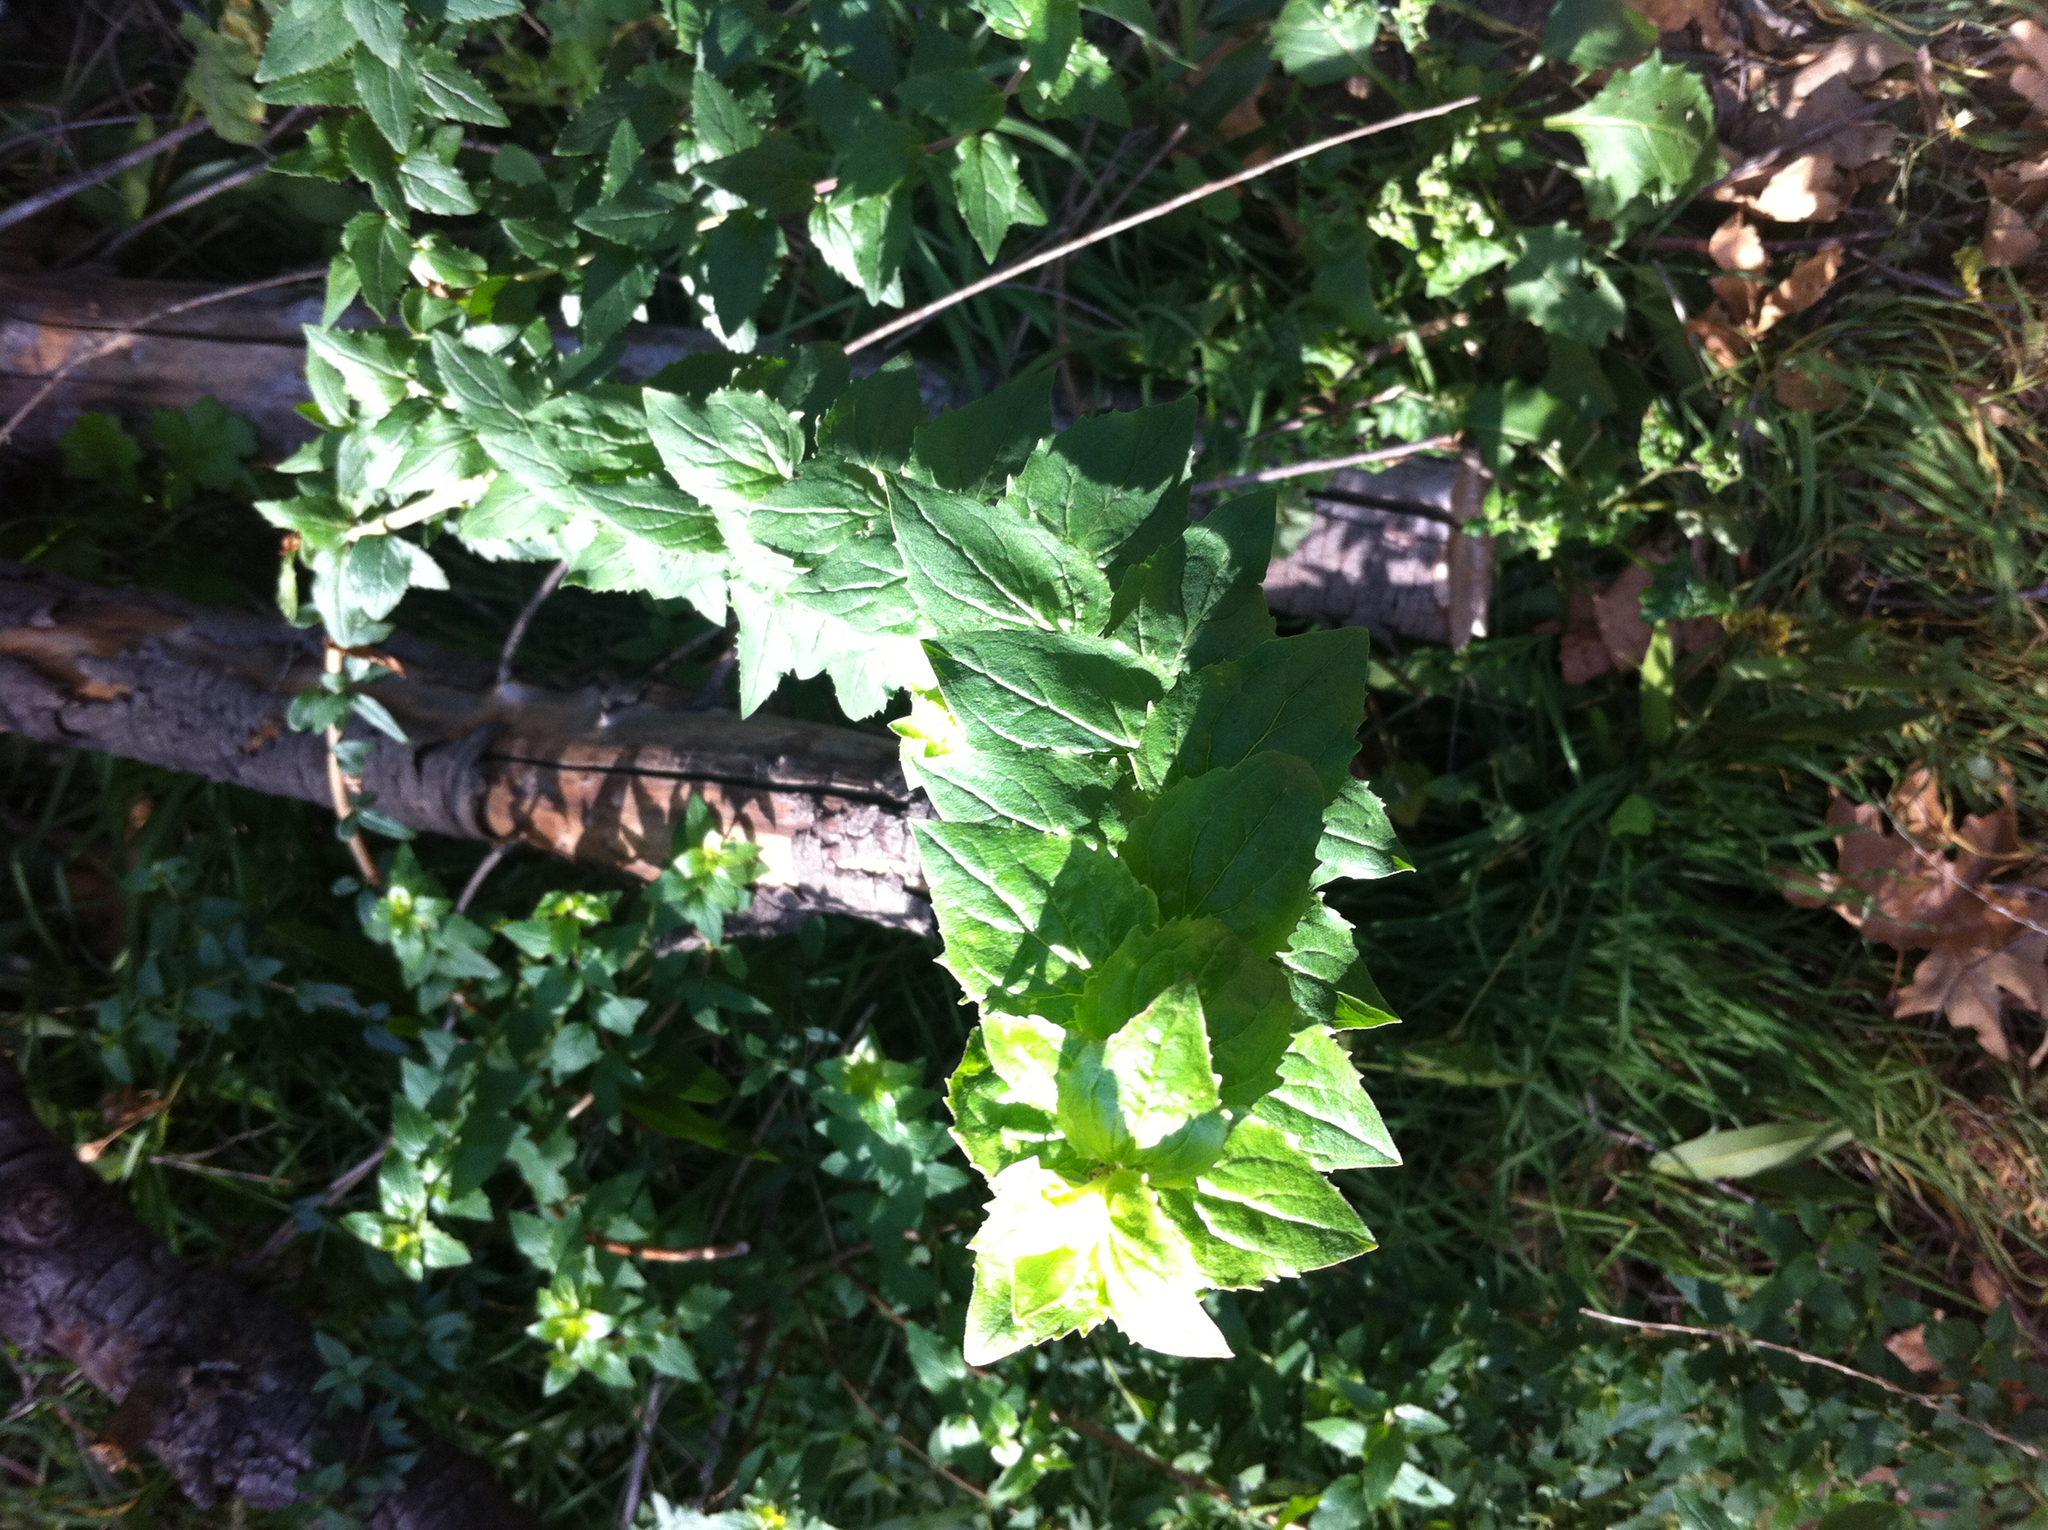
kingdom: Plantae
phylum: Tracheophyta
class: Magnoliopsida
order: Lamiales
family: Plantaginaceae
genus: Keckiella
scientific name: Keckiella cordifolia
